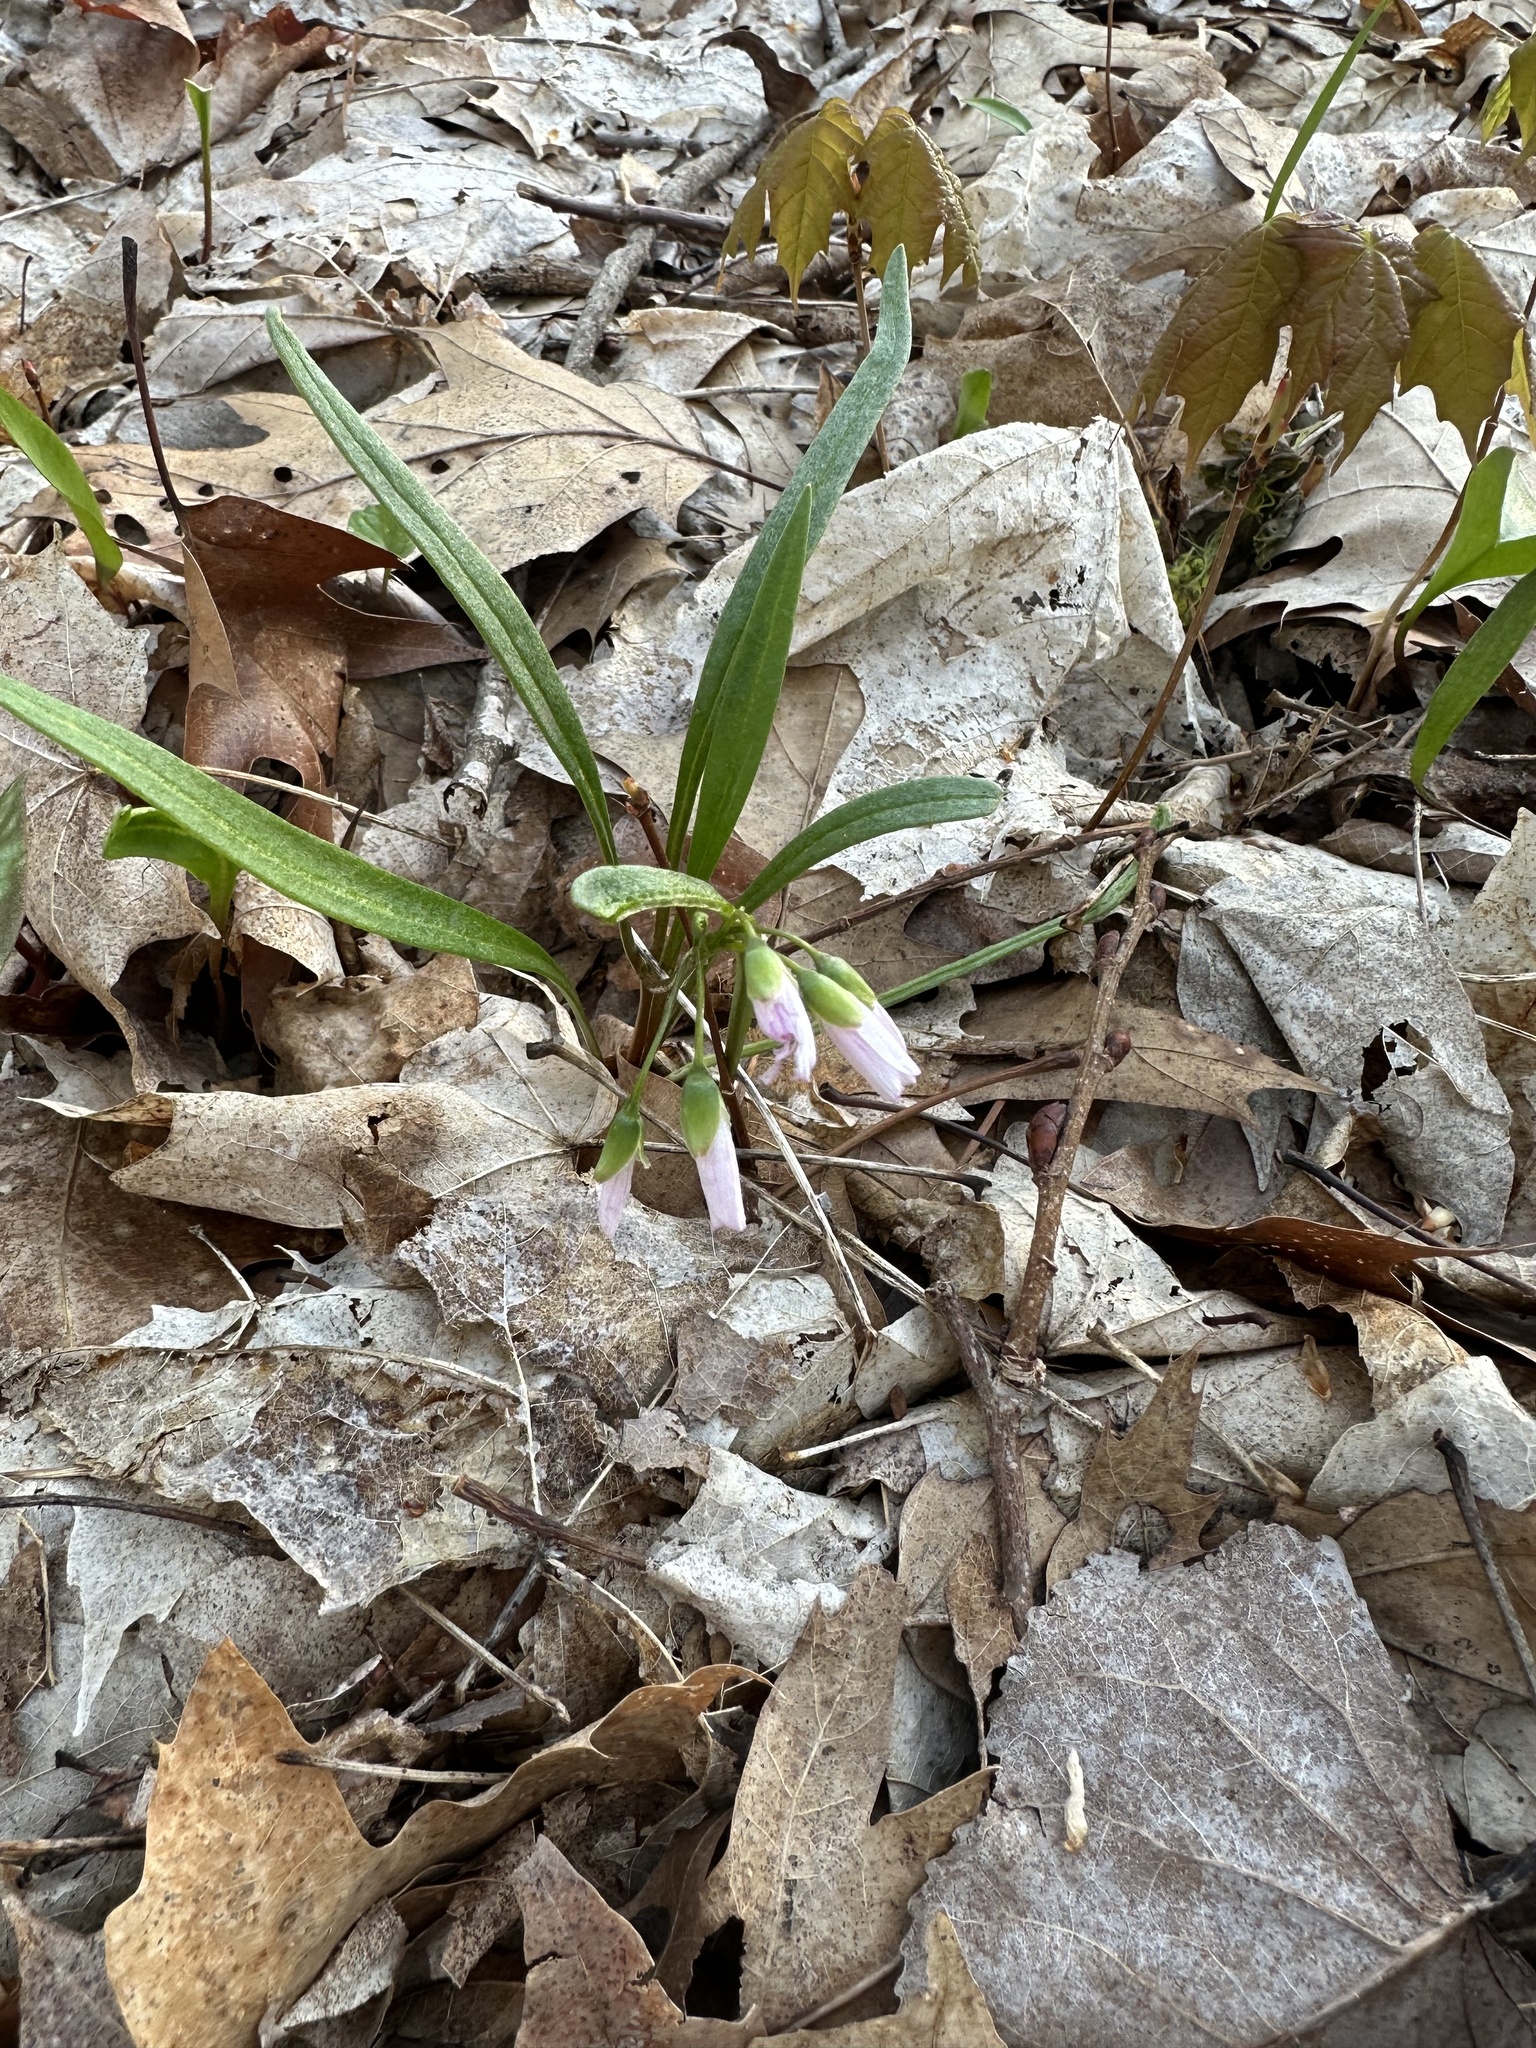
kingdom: Plantae
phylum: Tracheophyta
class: Magnoliopsida
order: Caryophyllales
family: Montiaceae
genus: Claytonia
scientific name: Claytonia virginica
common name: Virginia springbeauty
